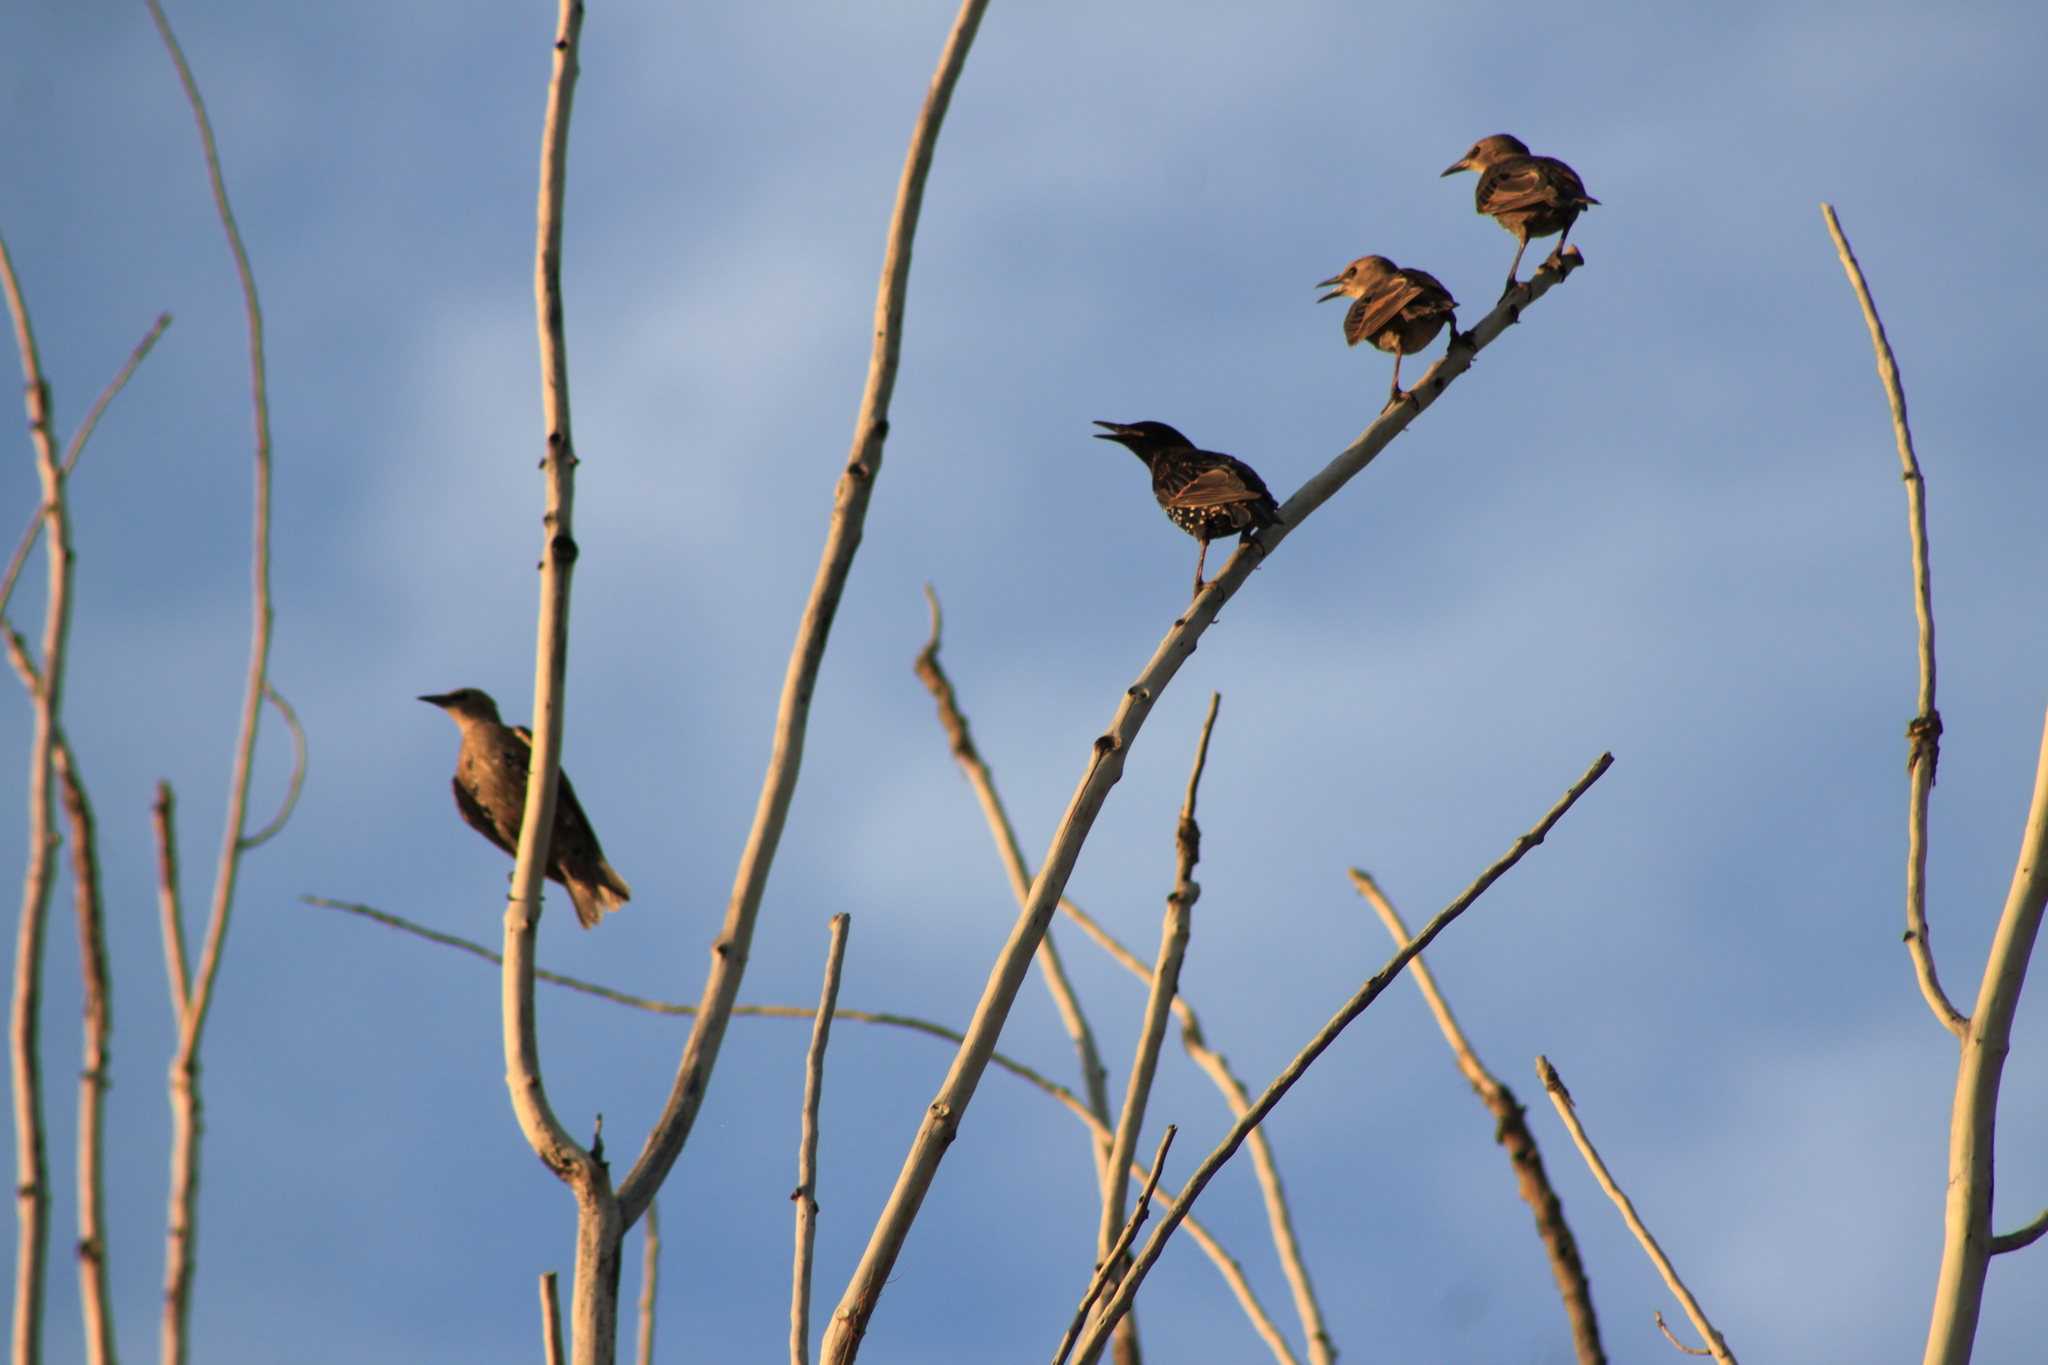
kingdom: Animalia
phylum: Chordata
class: Aves
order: Passeriformes
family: Sturnidae
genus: Sturnus
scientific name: Sturnus vulgaris
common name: Common starling
